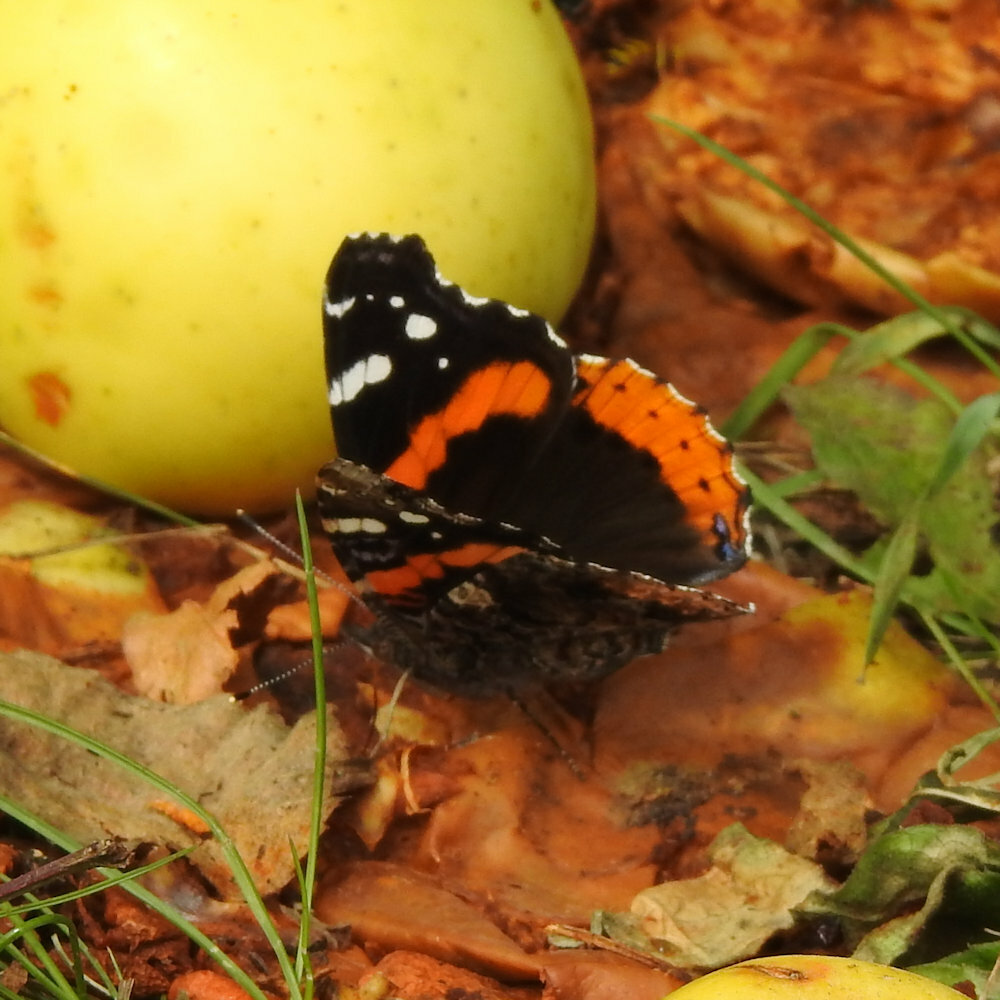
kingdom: Animalia
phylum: Arthropoda
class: Insecta
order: Lepidoptera
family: Nymphalidae
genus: Vanessa
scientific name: Vanessa atalanta
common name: Red admiral
